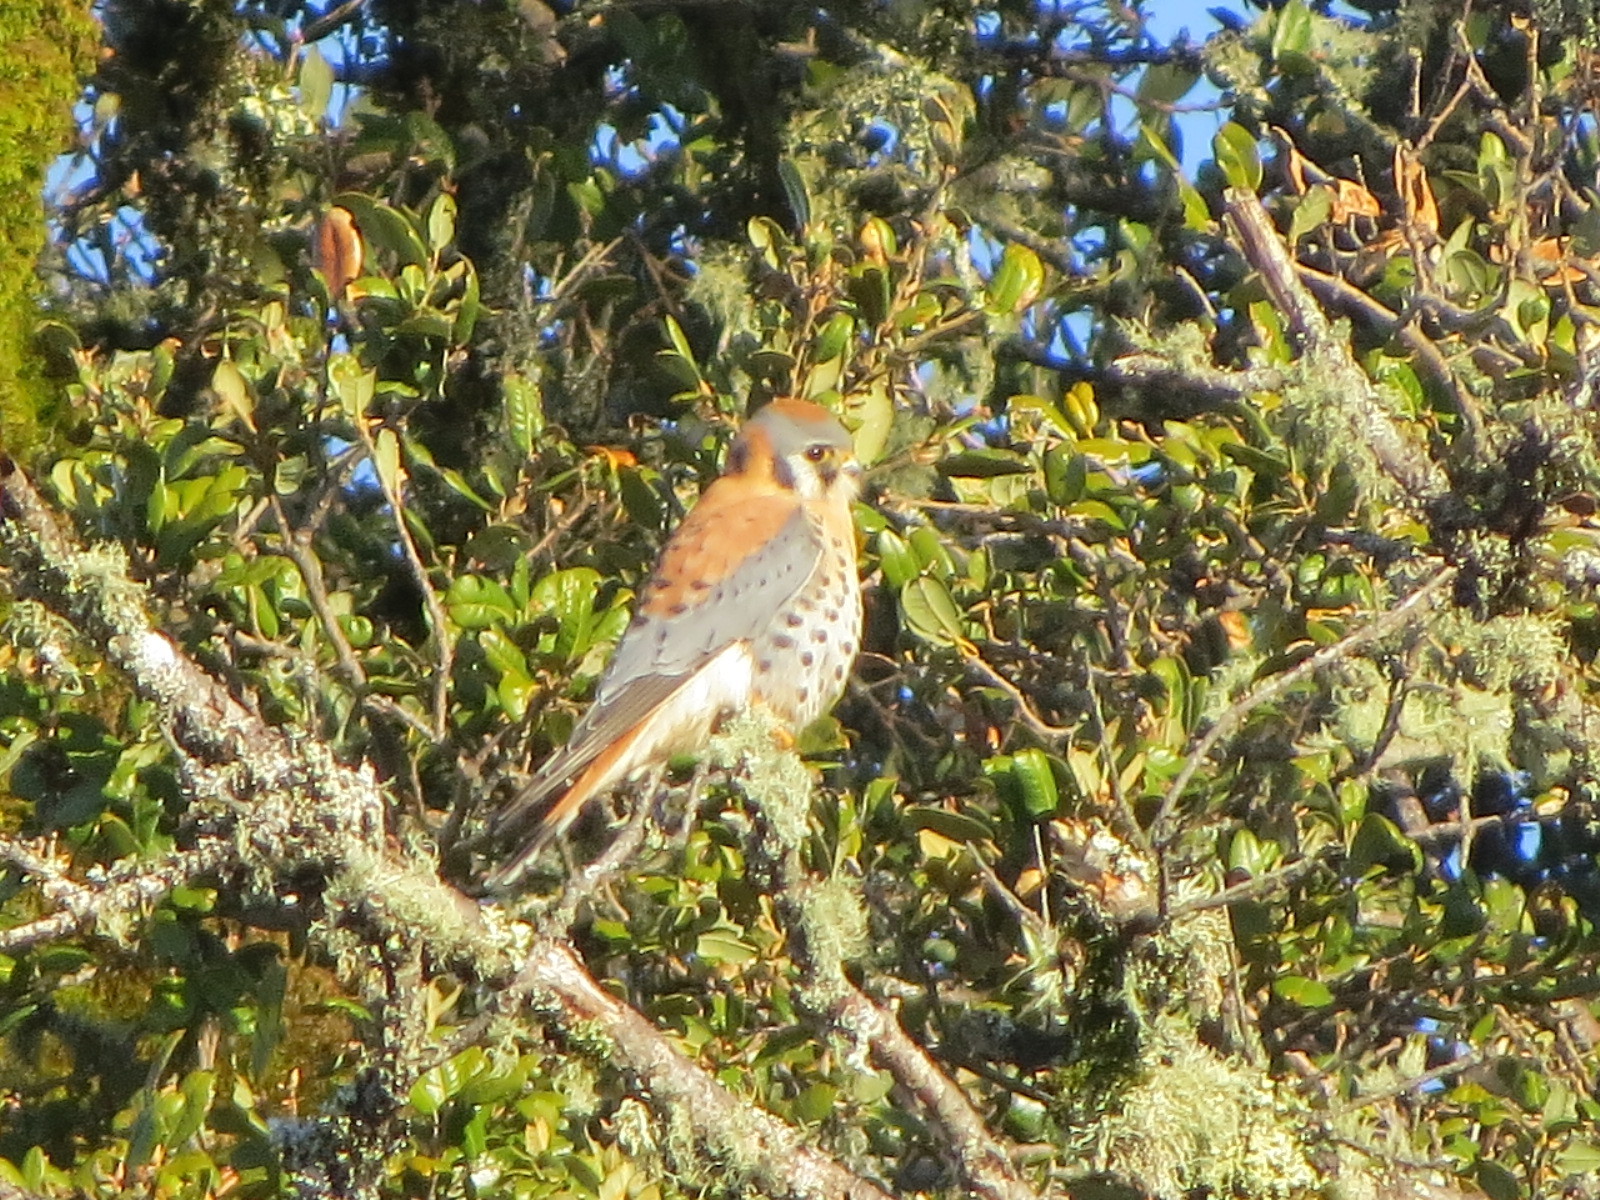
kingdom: Animalia
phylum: Chordata
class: Aves
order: Falconiformes
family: Falconidae
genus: Falco
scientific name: Falco sparverius
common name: American kestrel
